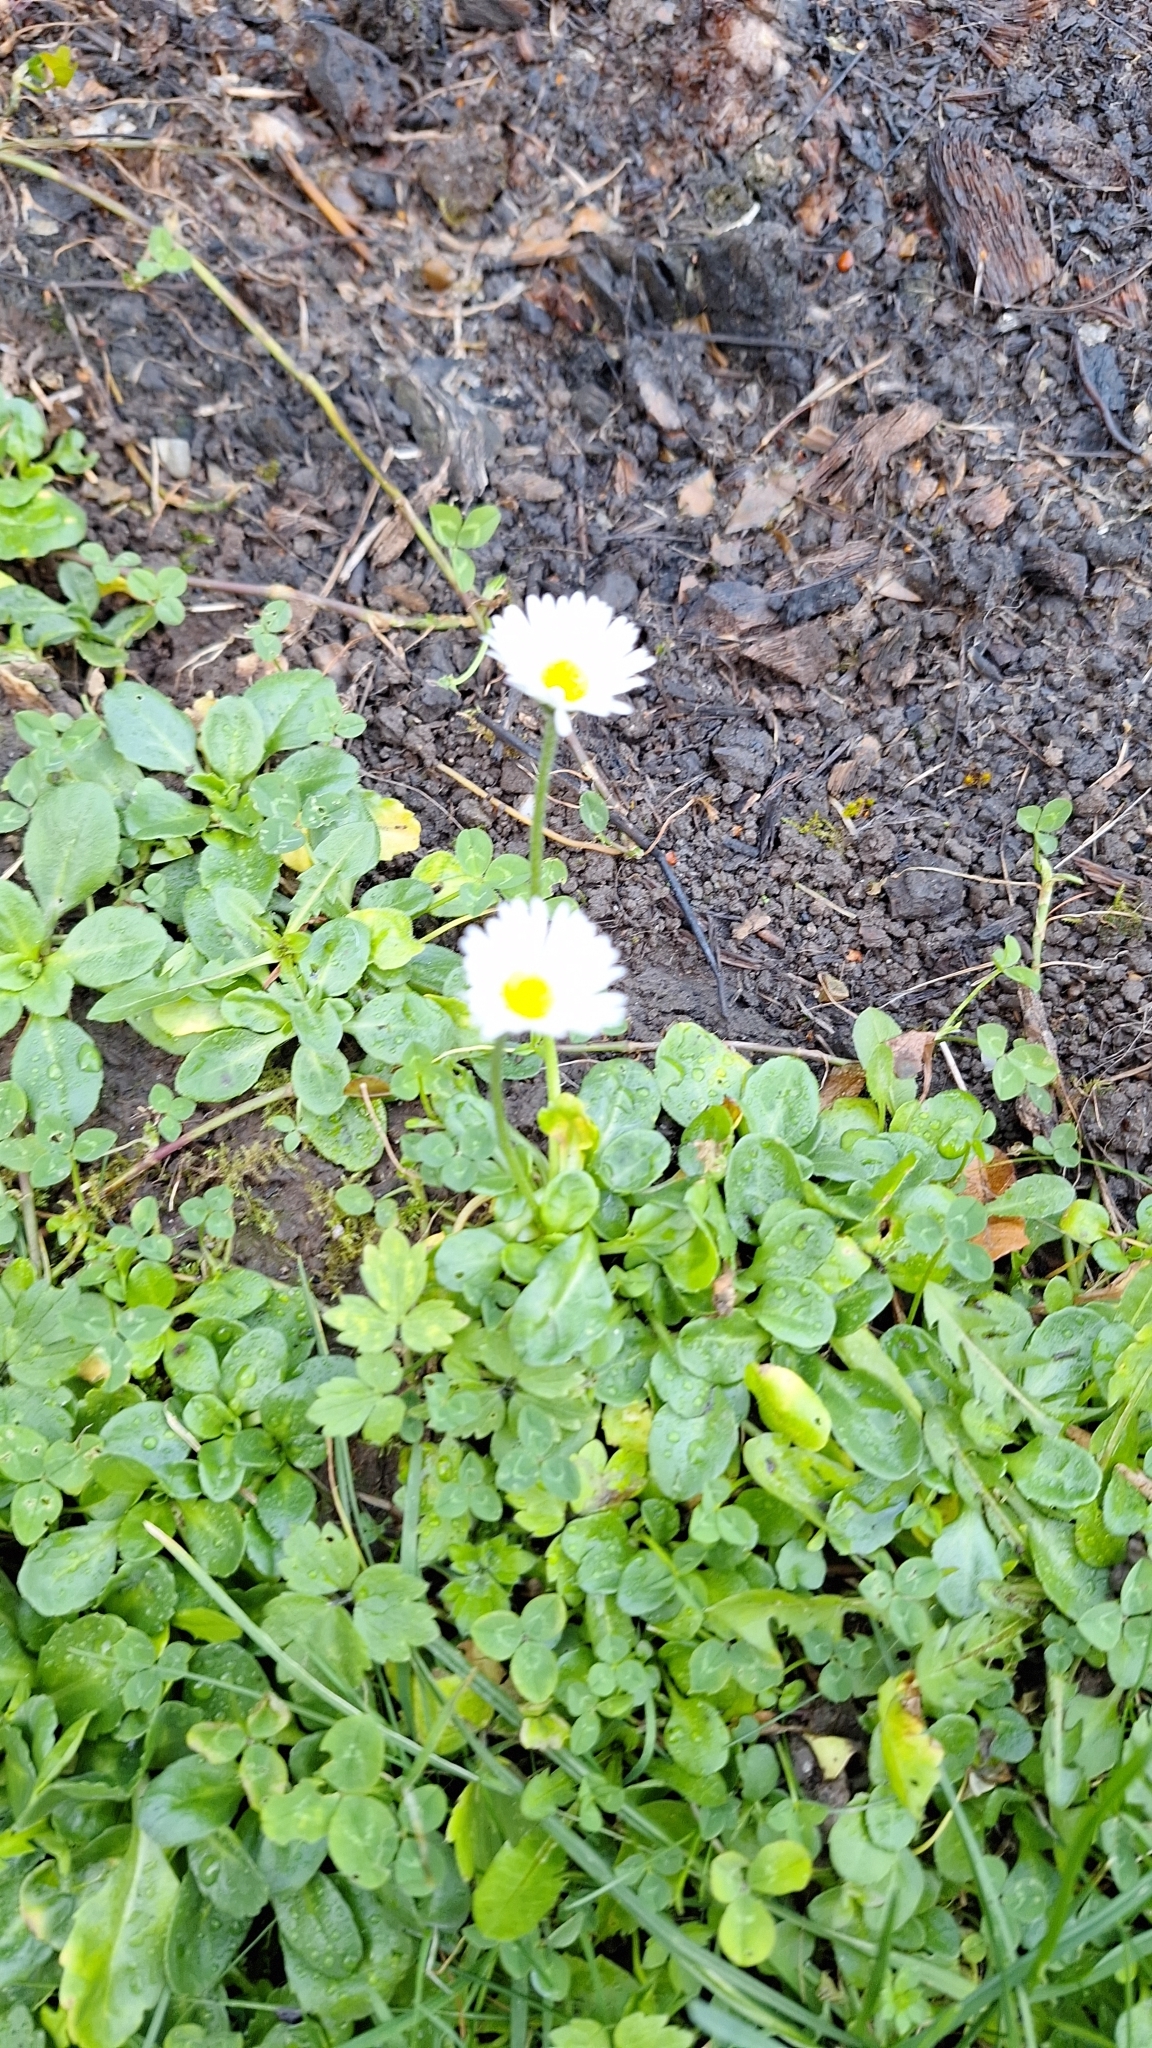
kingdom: Plantae
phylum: Tracheophyta
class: Magnoliopsida
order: Asterales
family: Asteraceae
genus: Bellis
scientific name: Bellis perennis
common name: Lawndaisy
